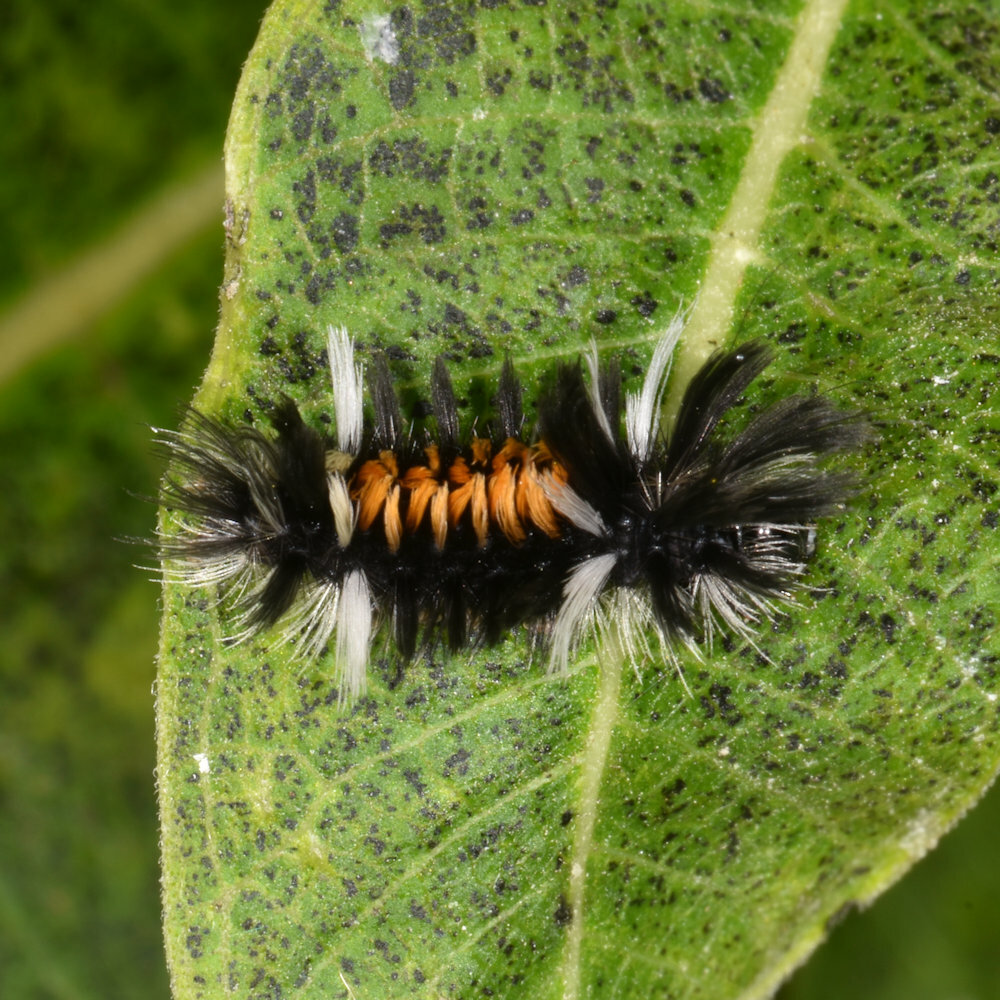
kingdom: Animalia
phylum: Arthropoda
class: Insecta
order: Lepidoptera
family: Erebidae
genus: Euchaetes
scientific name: Euchaetes egle
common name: Milkweed tussock moth
